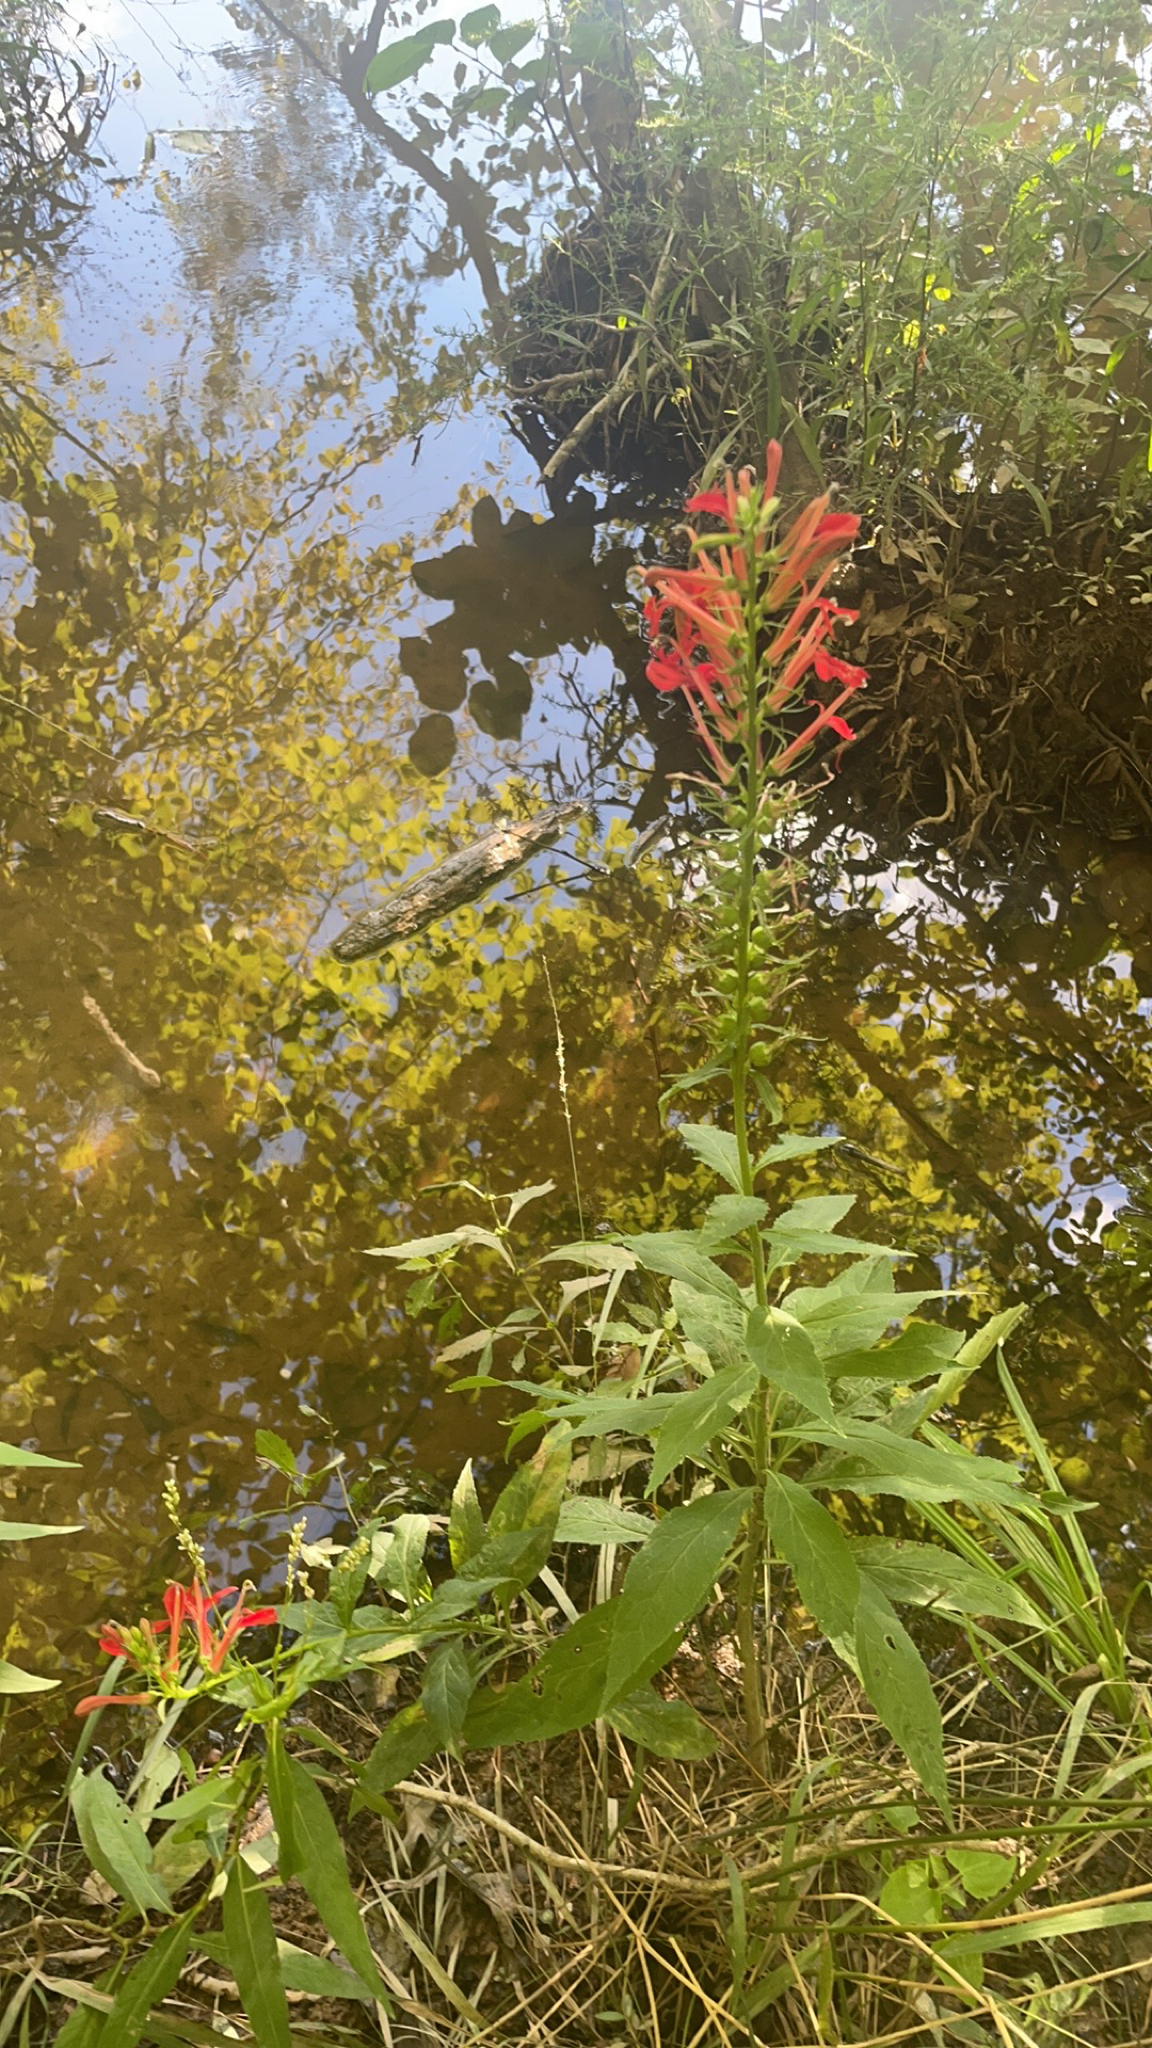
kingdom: Plantae
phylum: Tracheophyta
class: Magnoliopsida
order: Asterales
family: Campanulaceae
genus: Lobelia
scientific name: Lobelia cardinalis
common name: Cardinal flower
